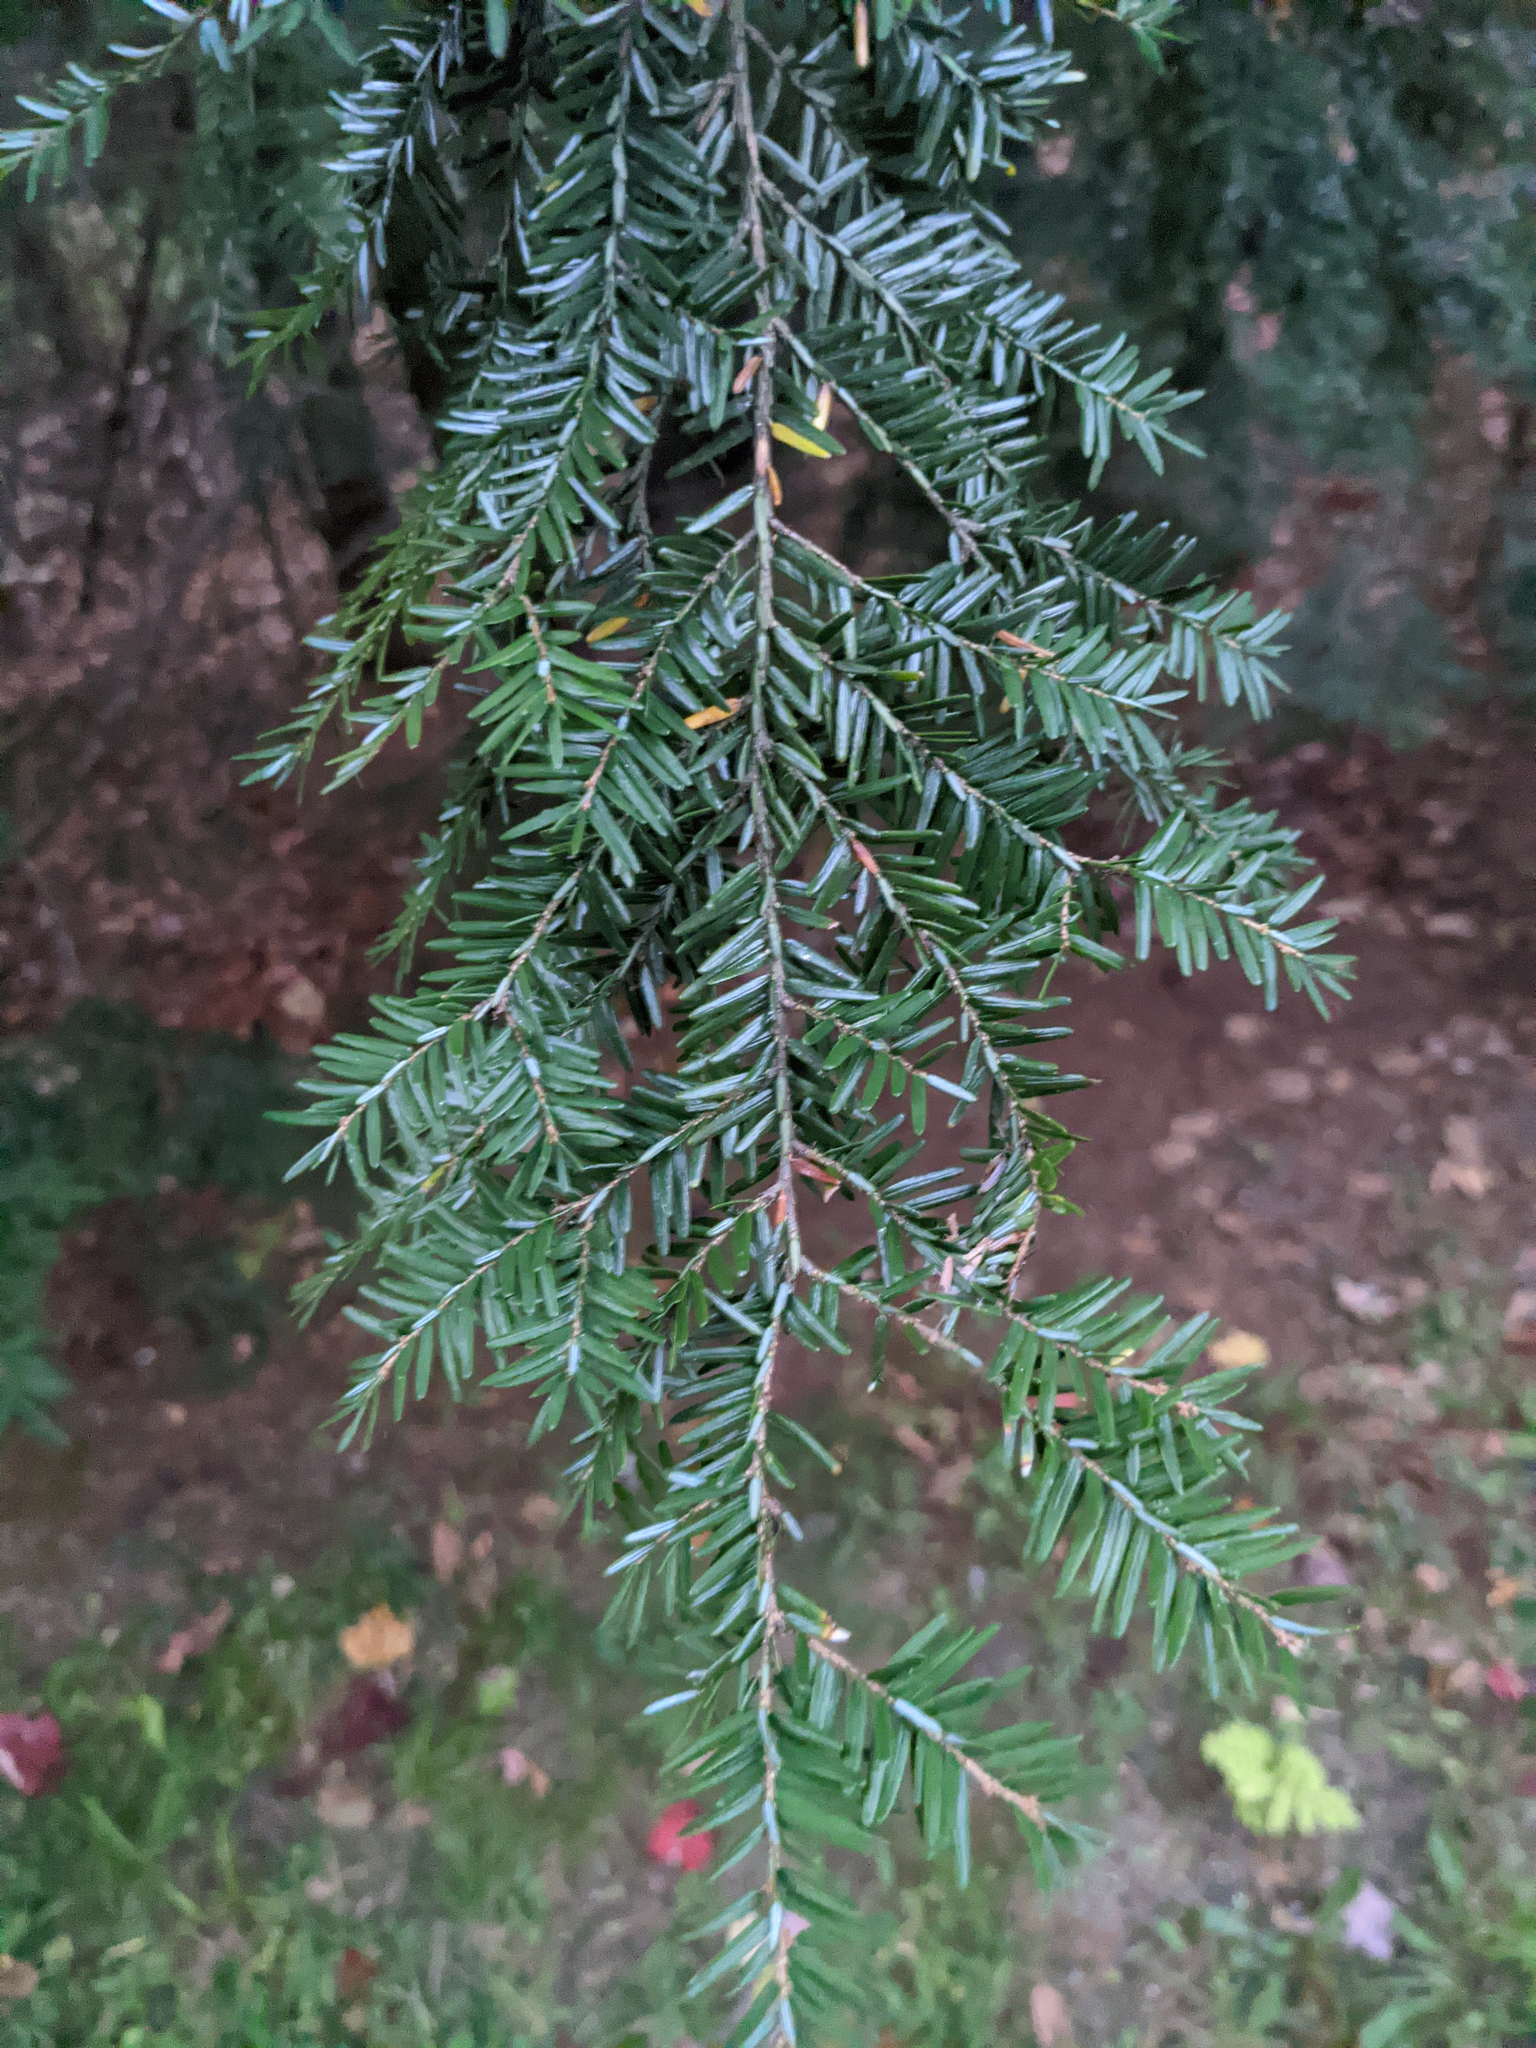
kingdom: Plantae
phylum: Tracheophyta
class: Pinopsida
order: Pinales
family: Pinaceae
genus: Tsuga
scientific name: Tsuga canadensis
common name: Eastern hemlock
